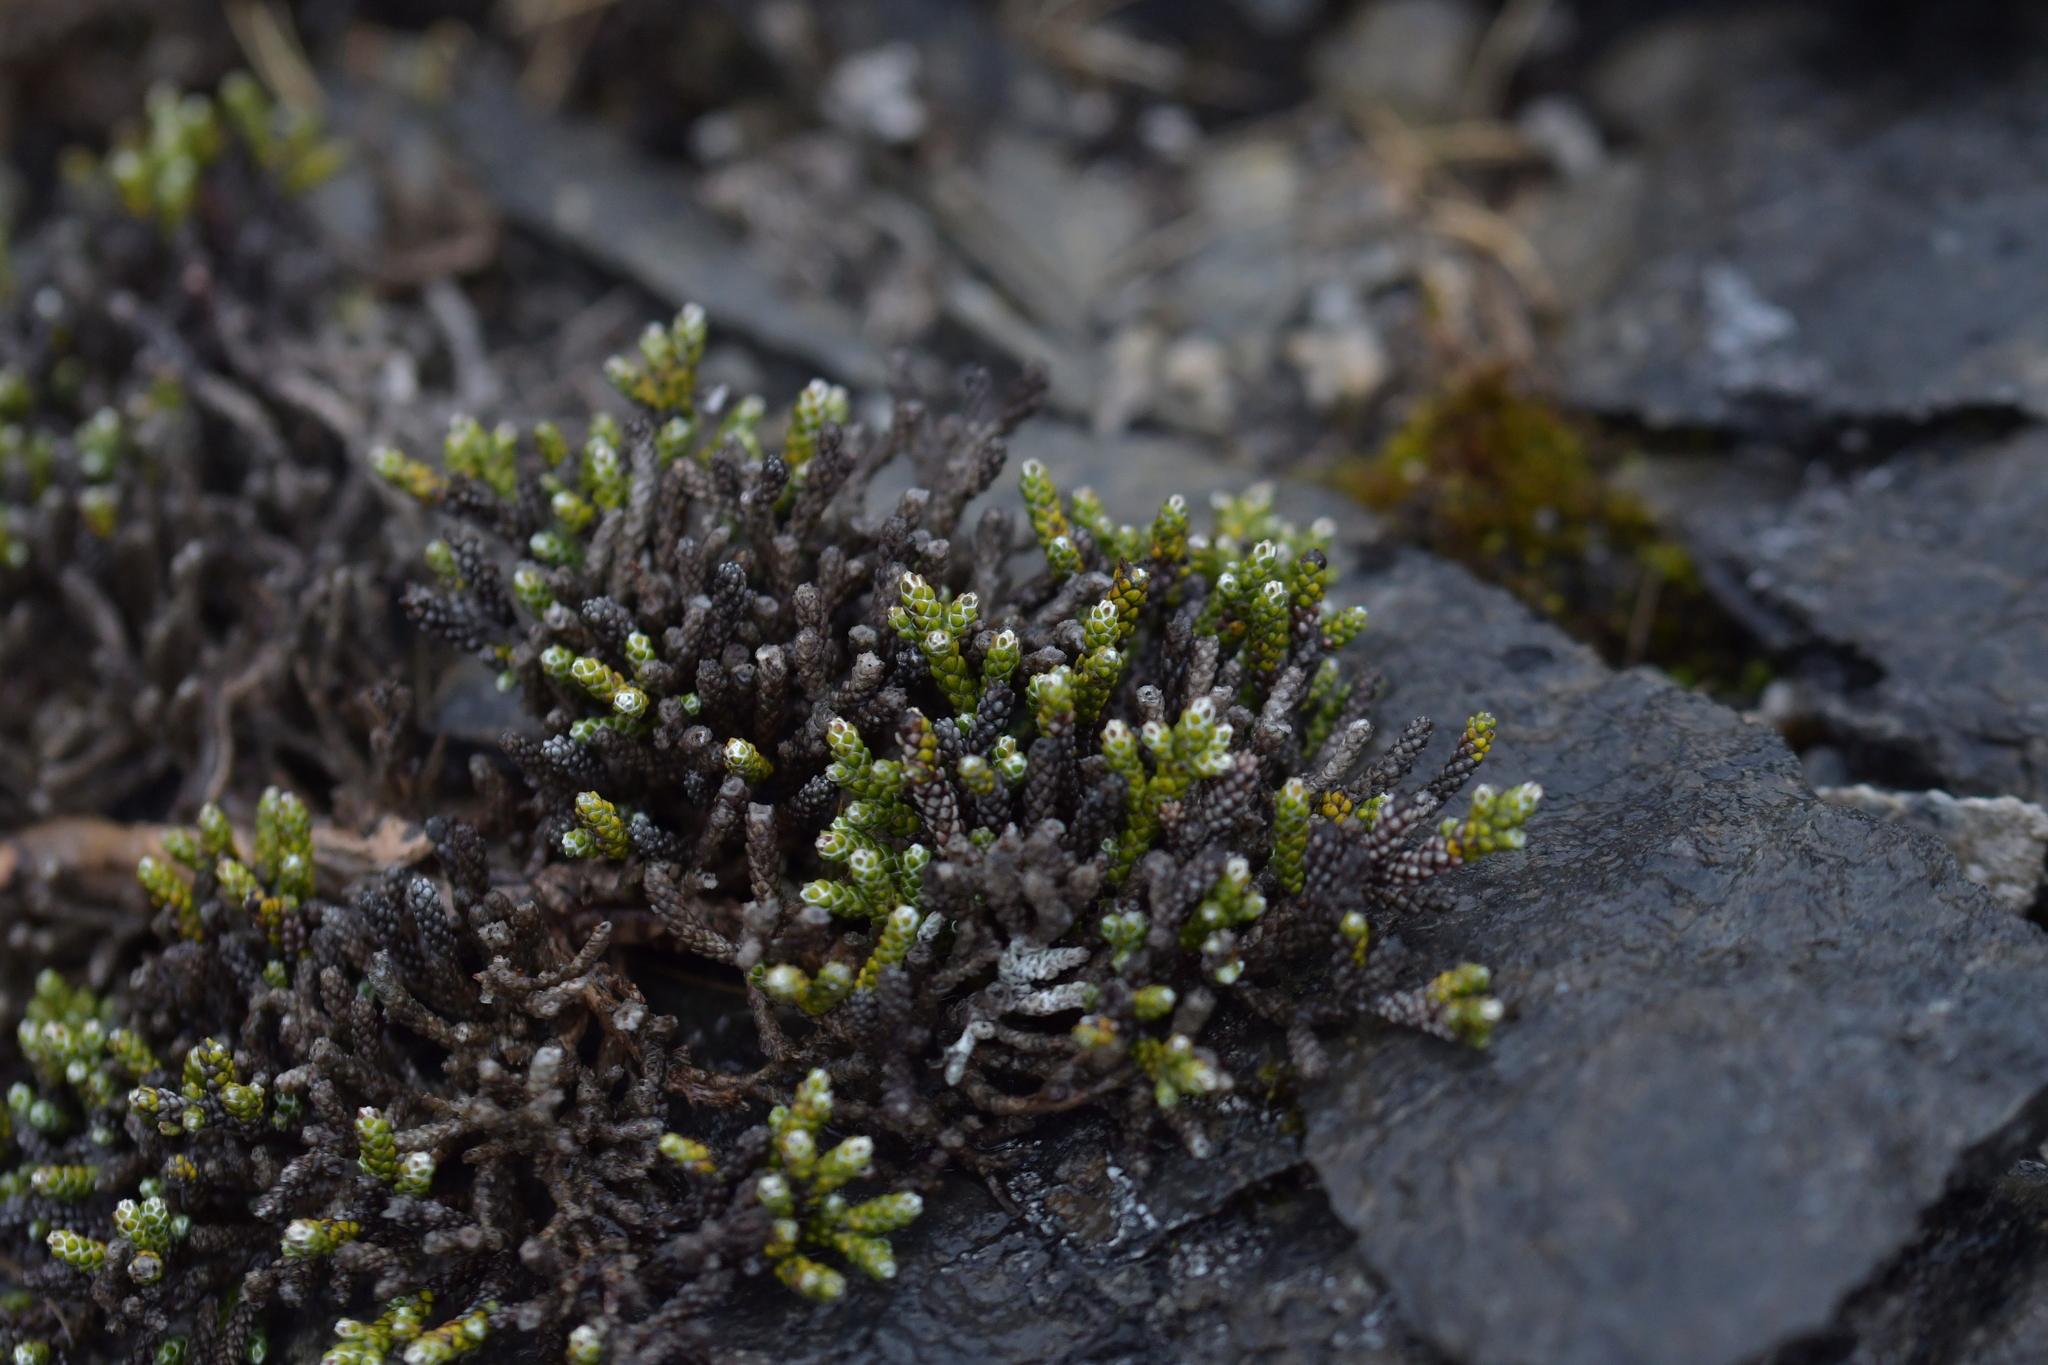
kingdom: Plantae
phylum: Tracheophyta
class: Magnoliopsida
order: Asterales
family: Asteraceae
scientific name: Asteraceae
